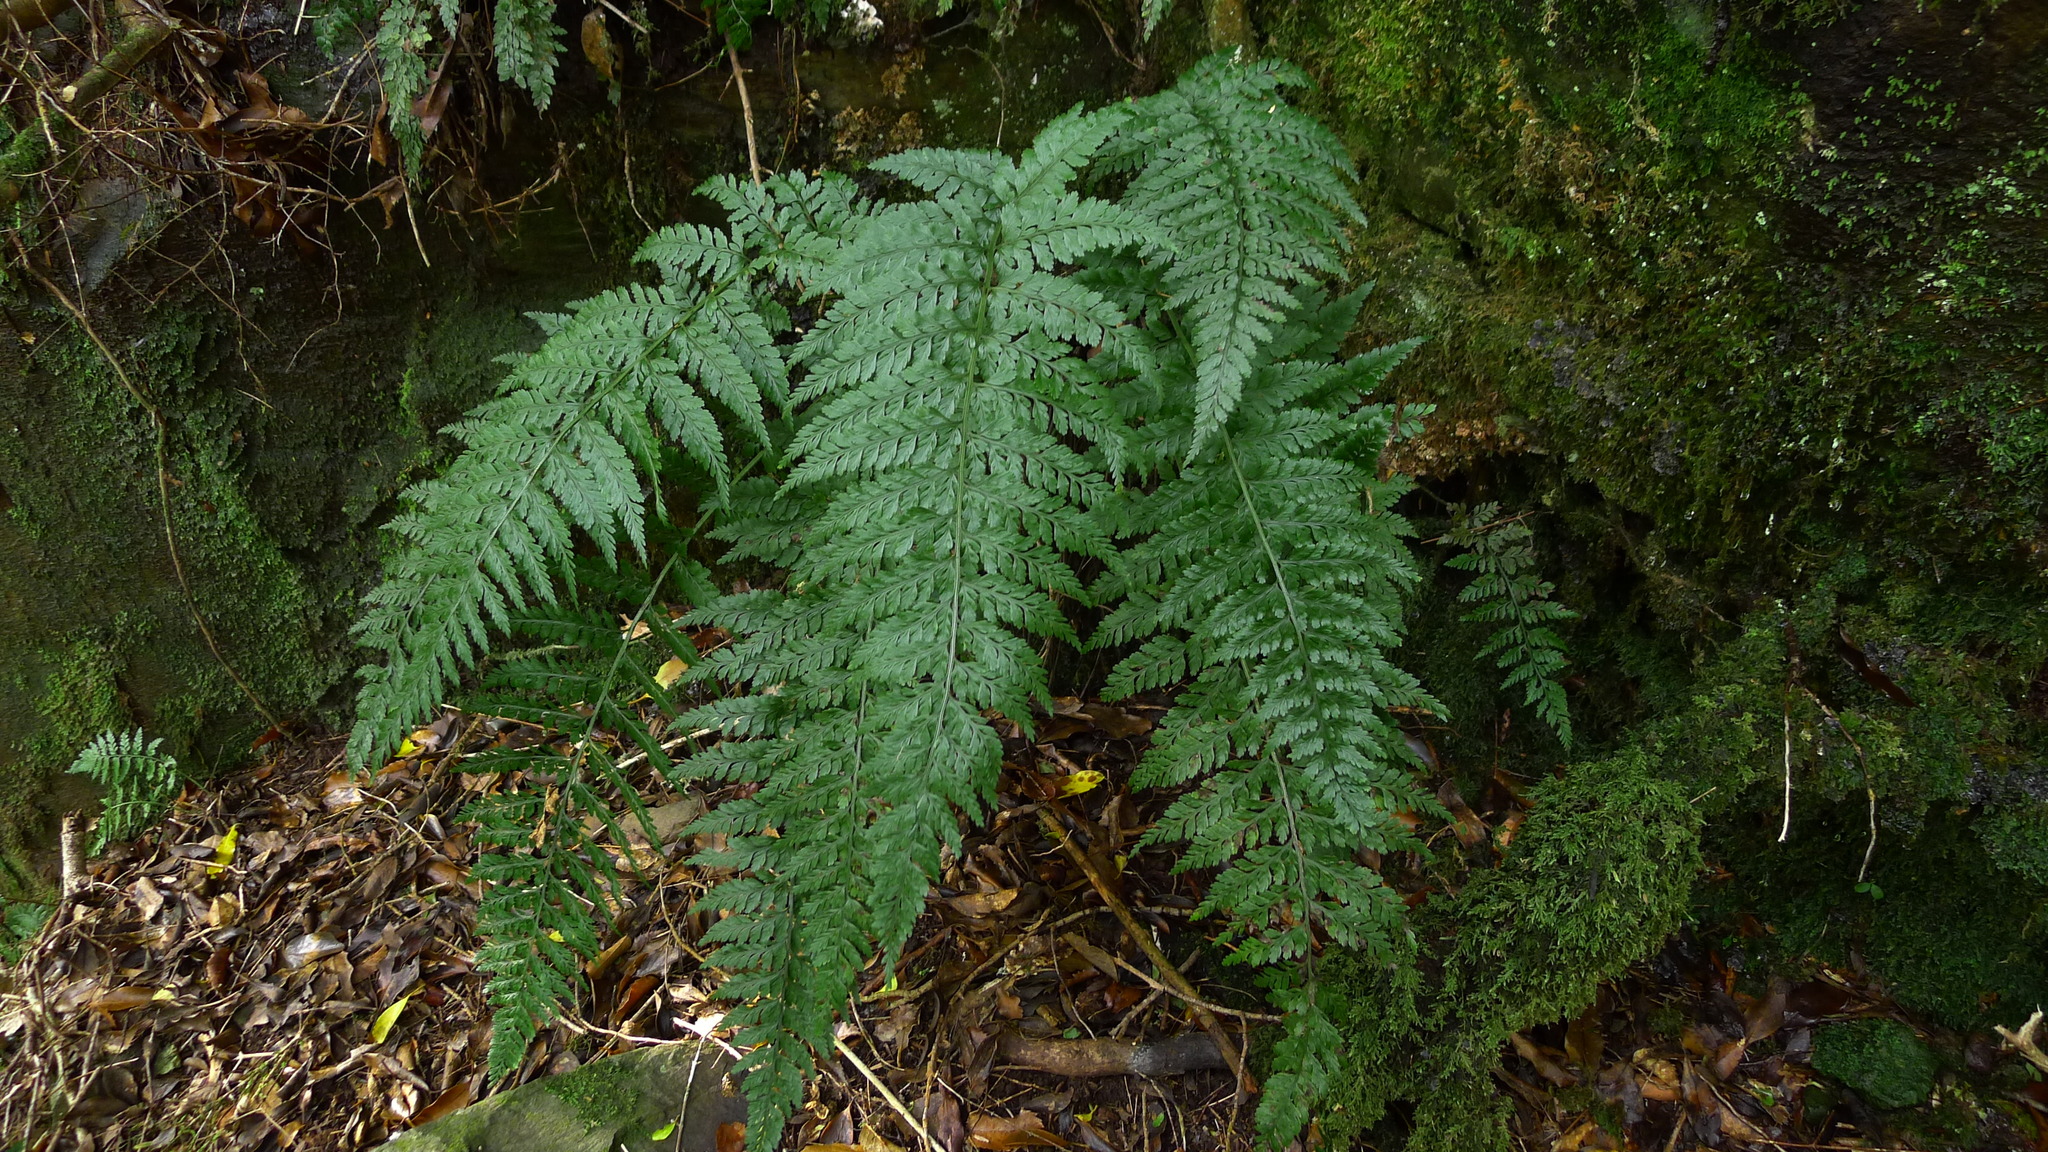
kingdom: Plantae
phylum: Tracheophyta
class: Polypodiopsida
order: Polypodiales
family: Aspleniaceae
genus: Asplenium
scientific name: Asplenium
